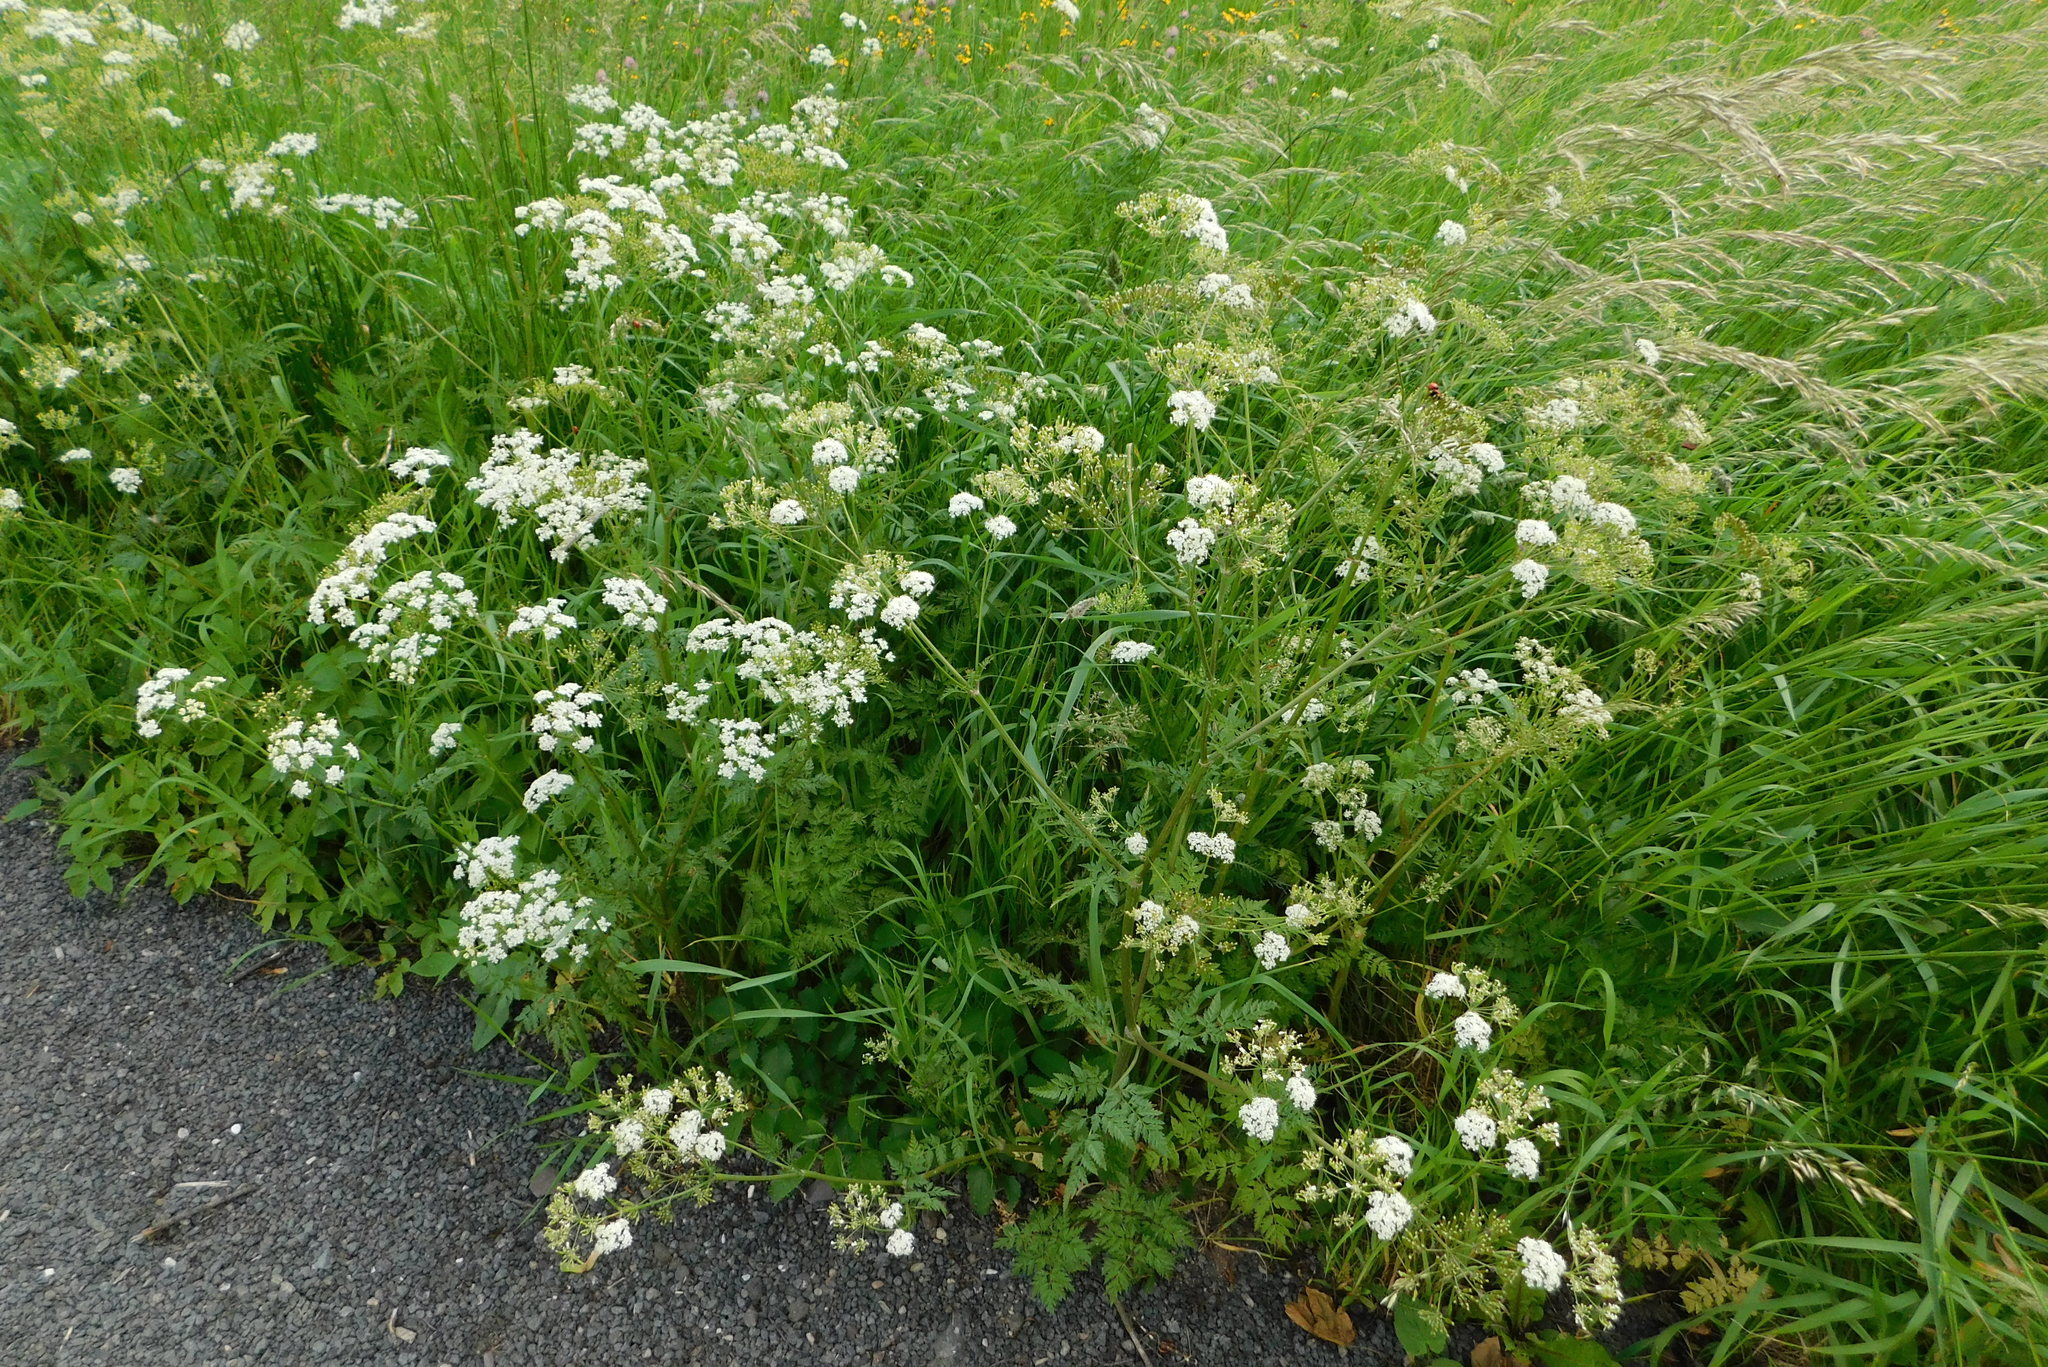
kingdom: Plantae
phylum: Tracheophyta
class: Magnoliopsida
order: Apiales
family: Apiaceae
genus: Anthriscus
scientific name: Anthriscus sylvestris
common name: Cow parsley
